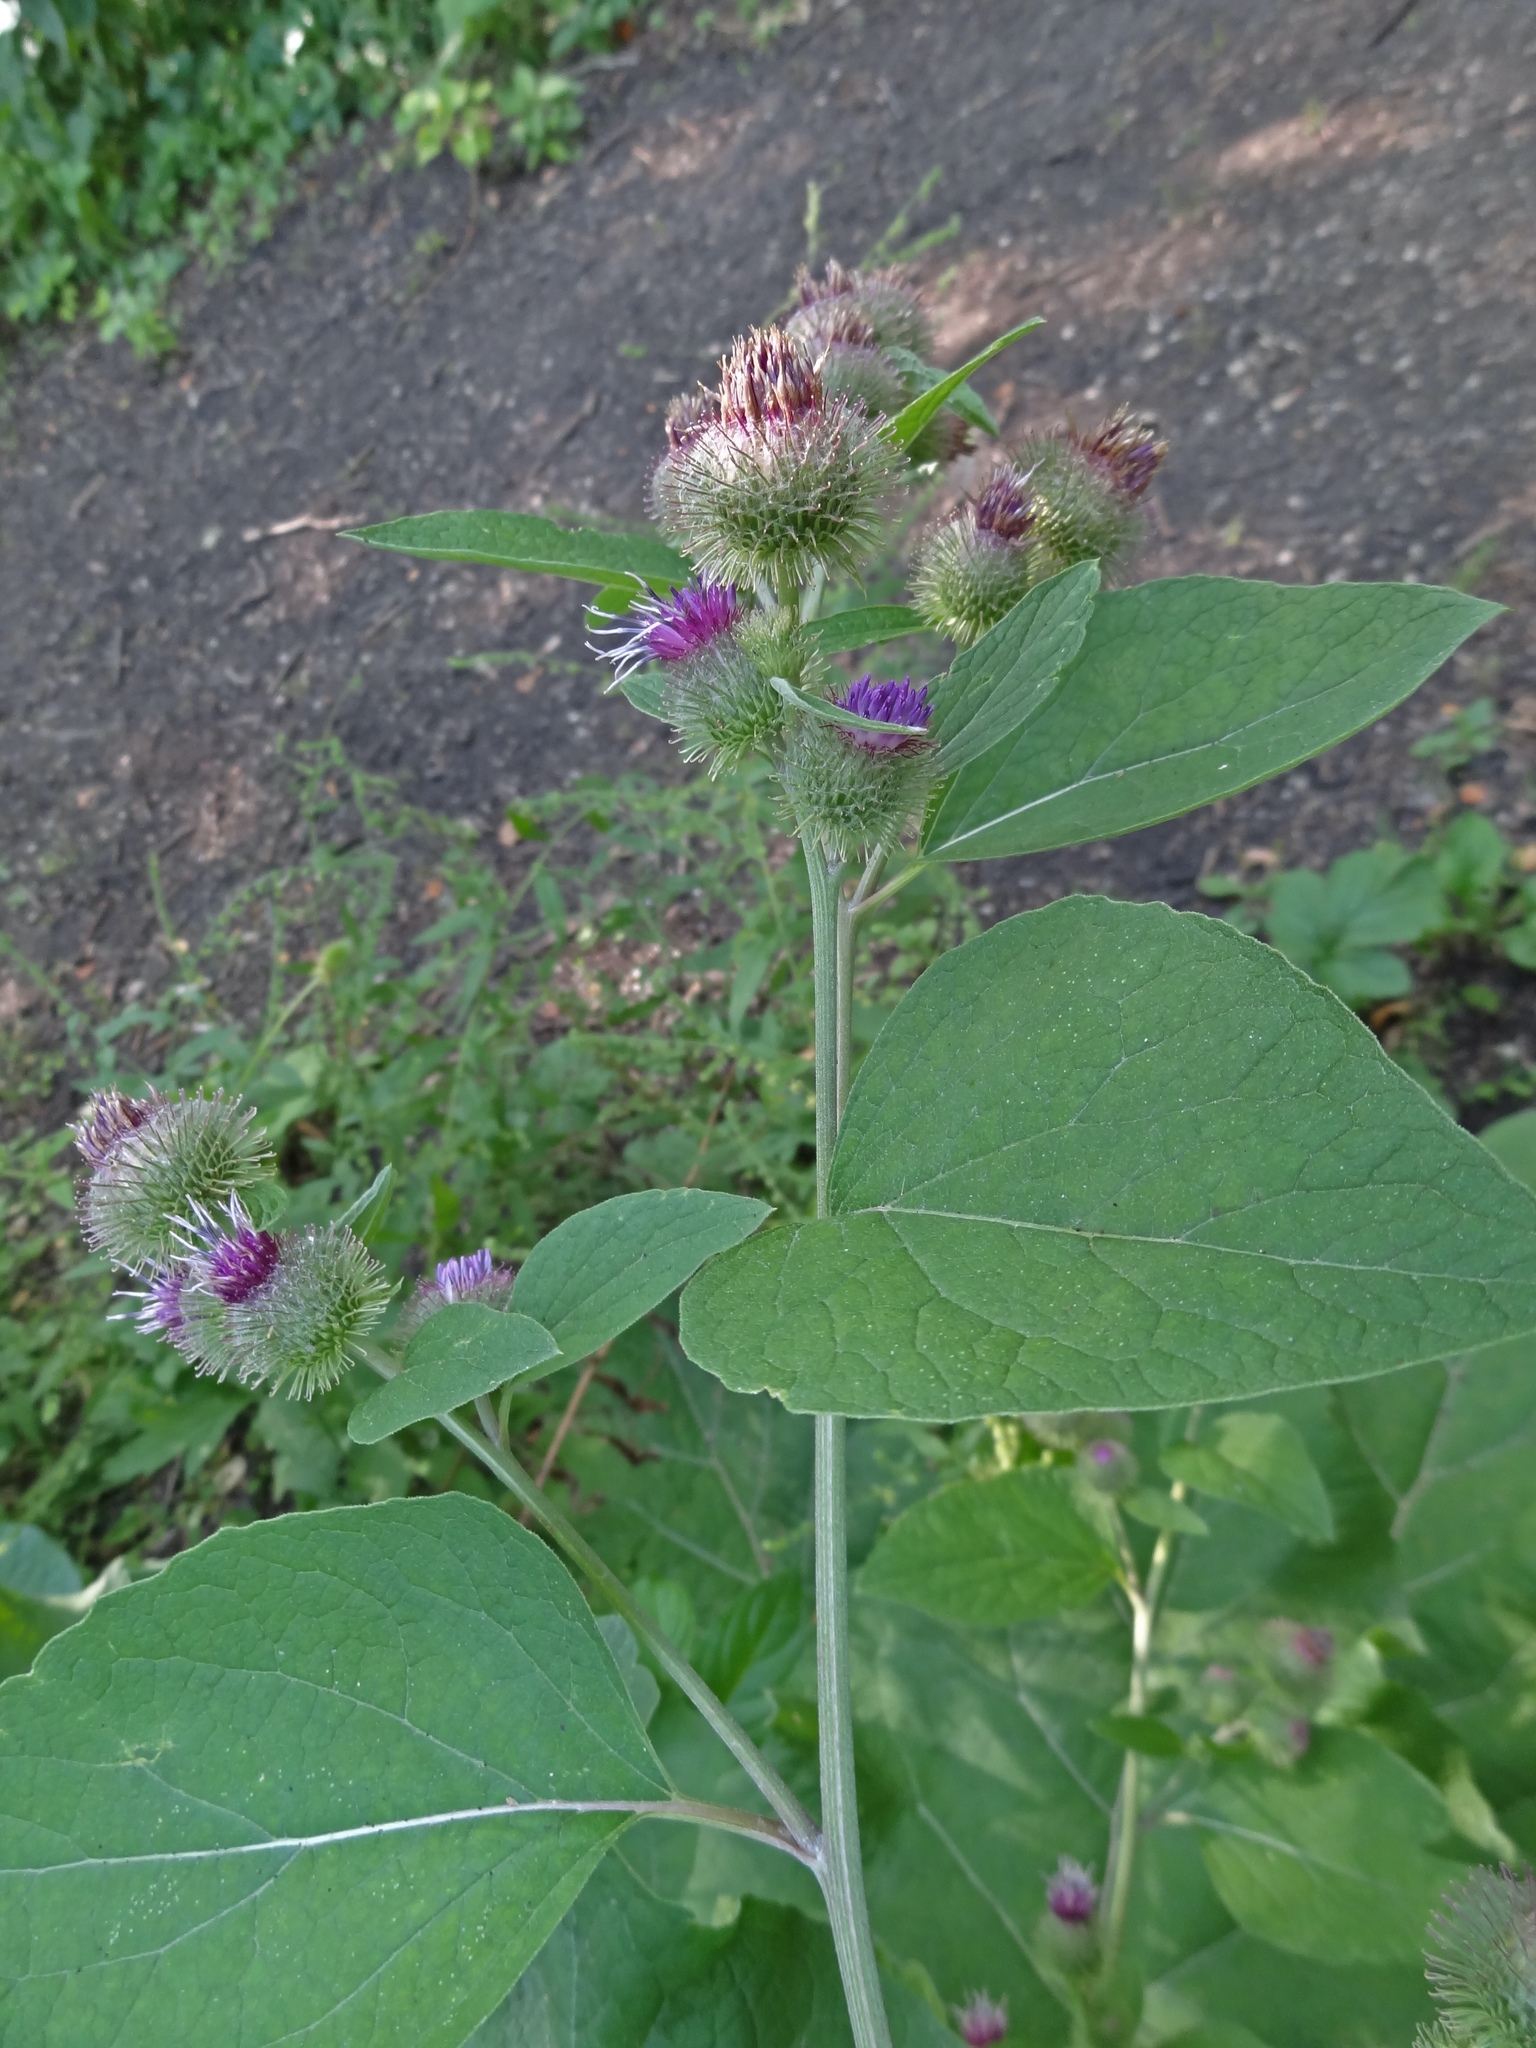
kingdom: Plantae
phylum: Tracheophyta
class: Magnoliopsida
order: Asterales
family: Asteraceae
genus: Arctium
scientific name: Arctium tomentosum
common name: Woolly burdock
